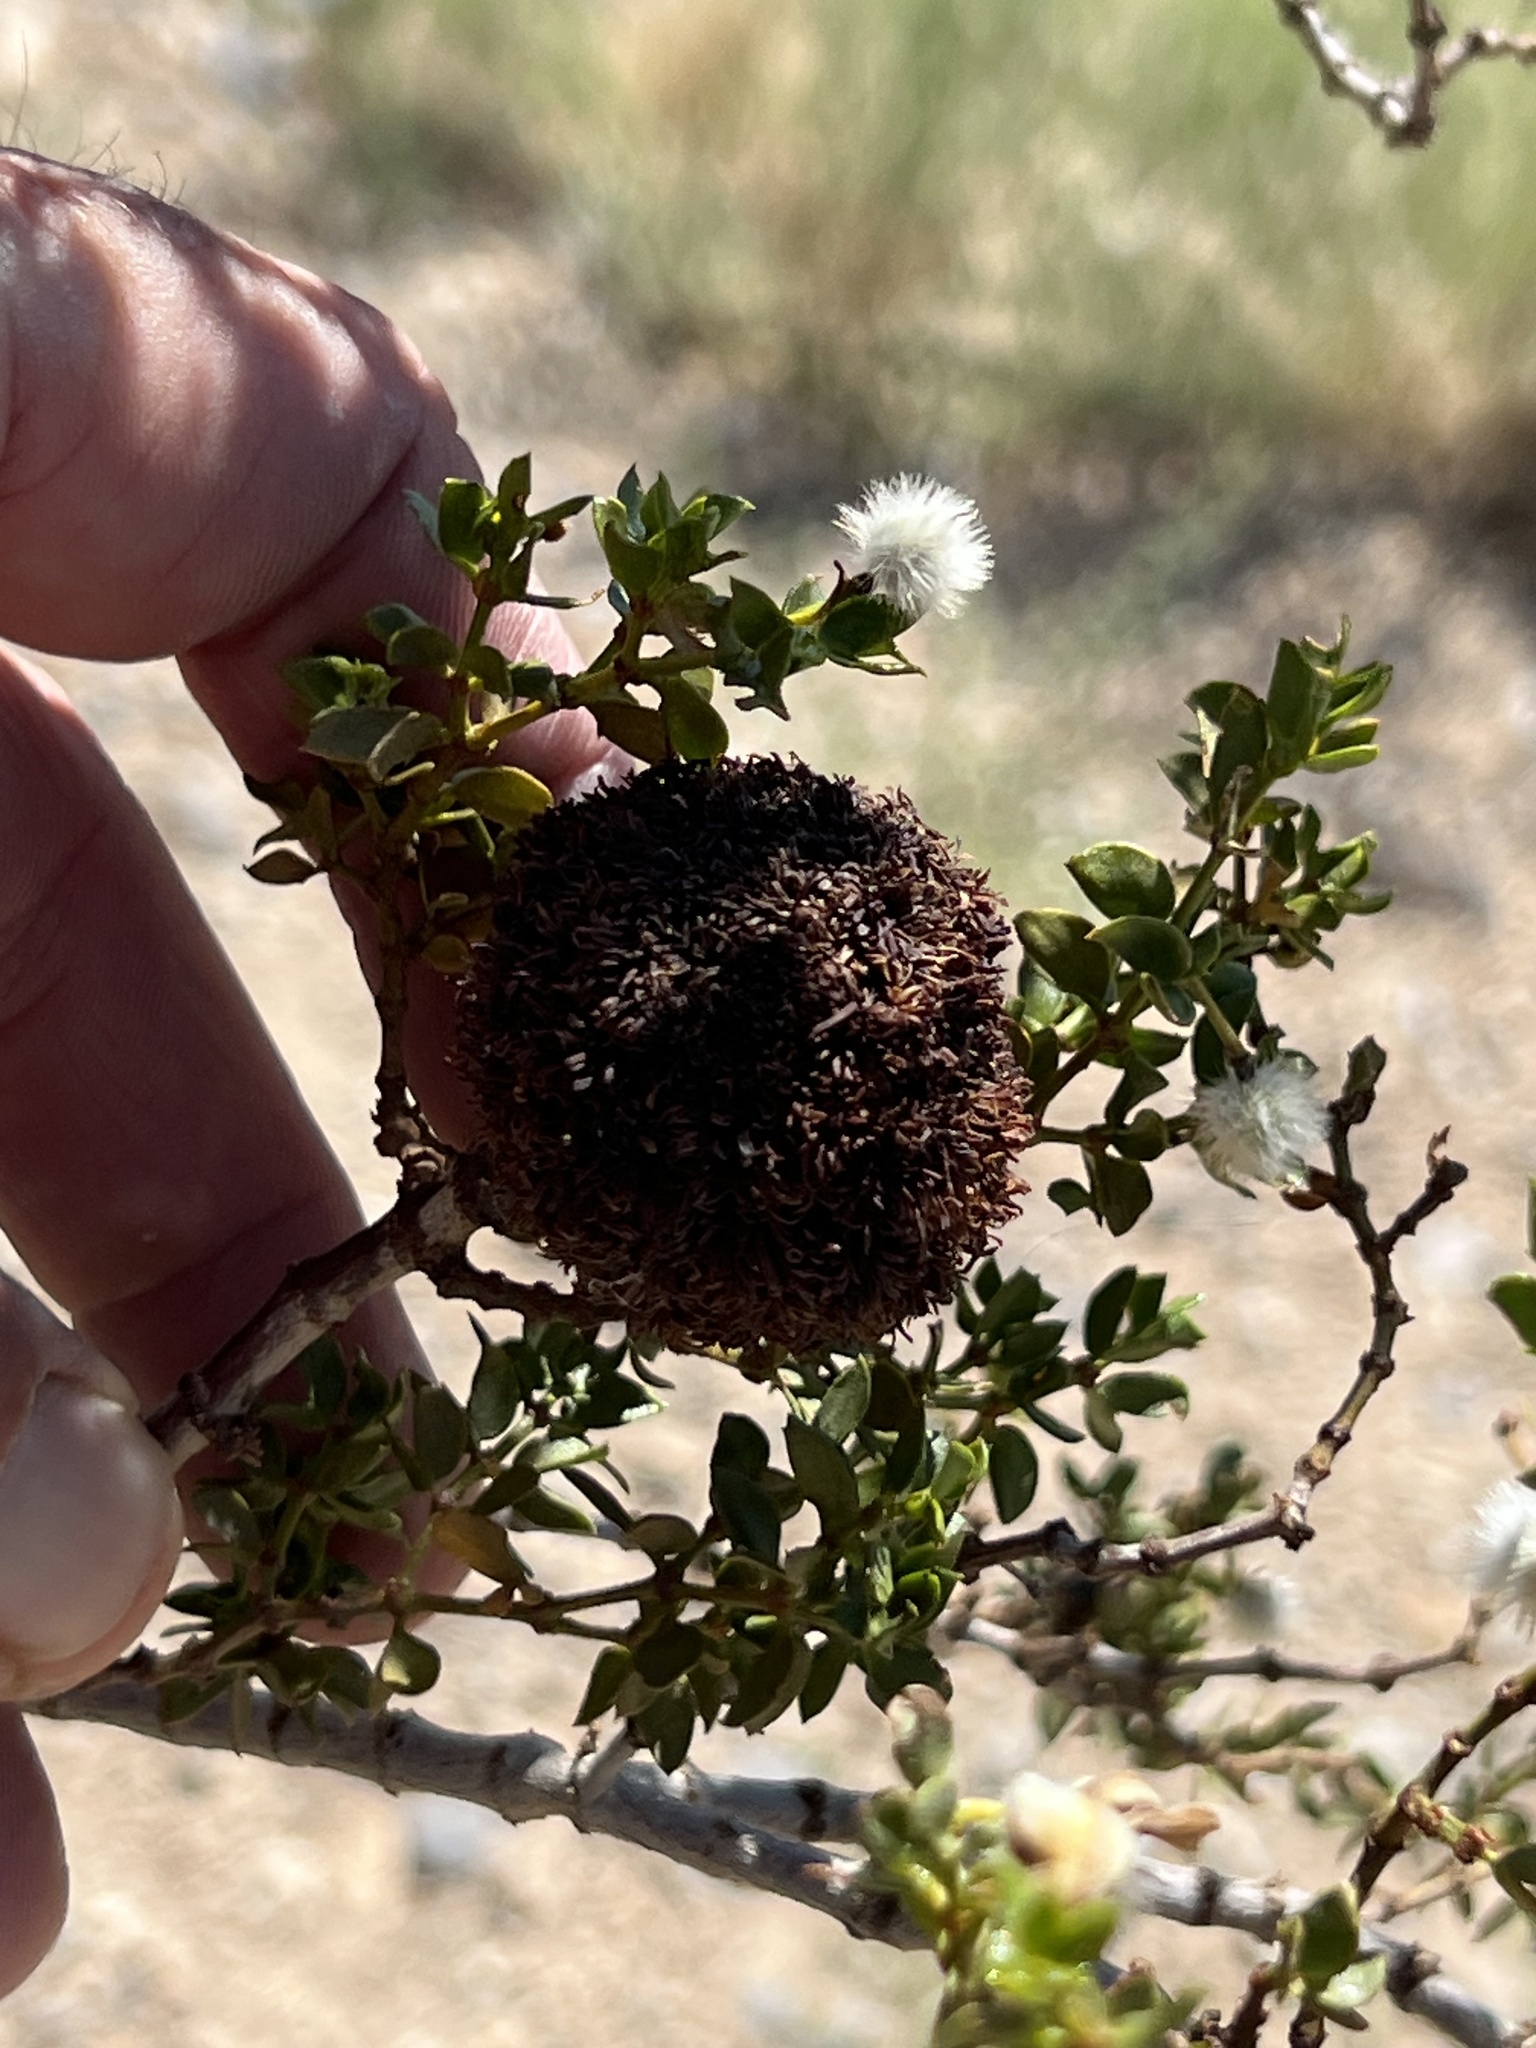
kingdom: Animalia
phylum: Arthropoda
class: Insecta
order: Diptera
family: Cecidomyiidae
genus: Asphondylia
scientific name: Asphondylia auripila
